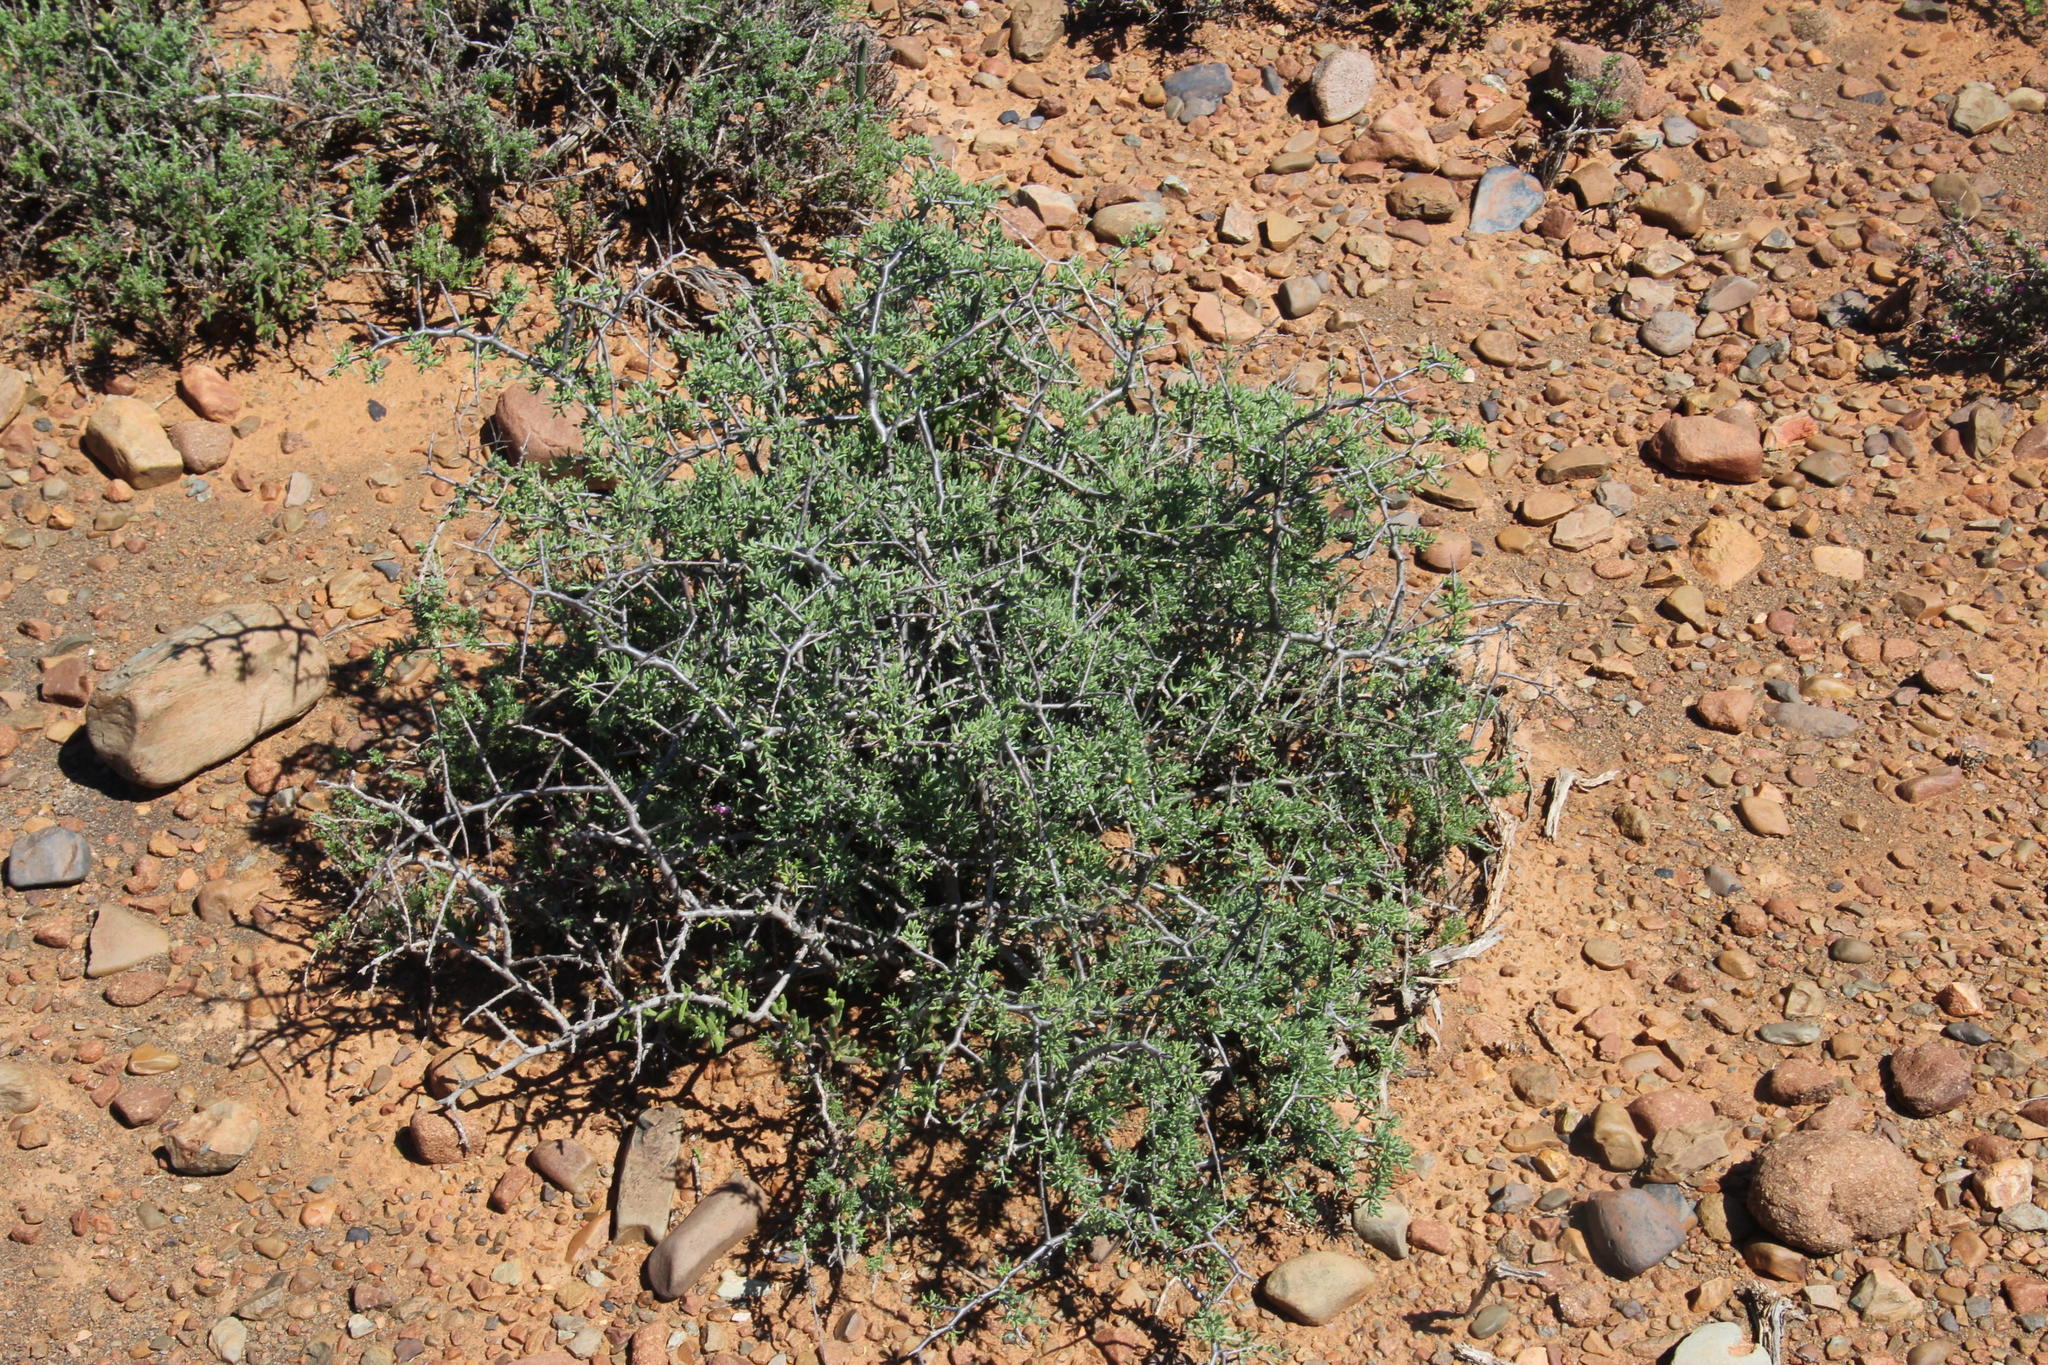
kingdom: Plantae
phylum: Tracheophyta
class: Magnoliopsida
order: Solanales
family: Solanaceae
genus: Lycium
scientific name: Lycium pumilum
